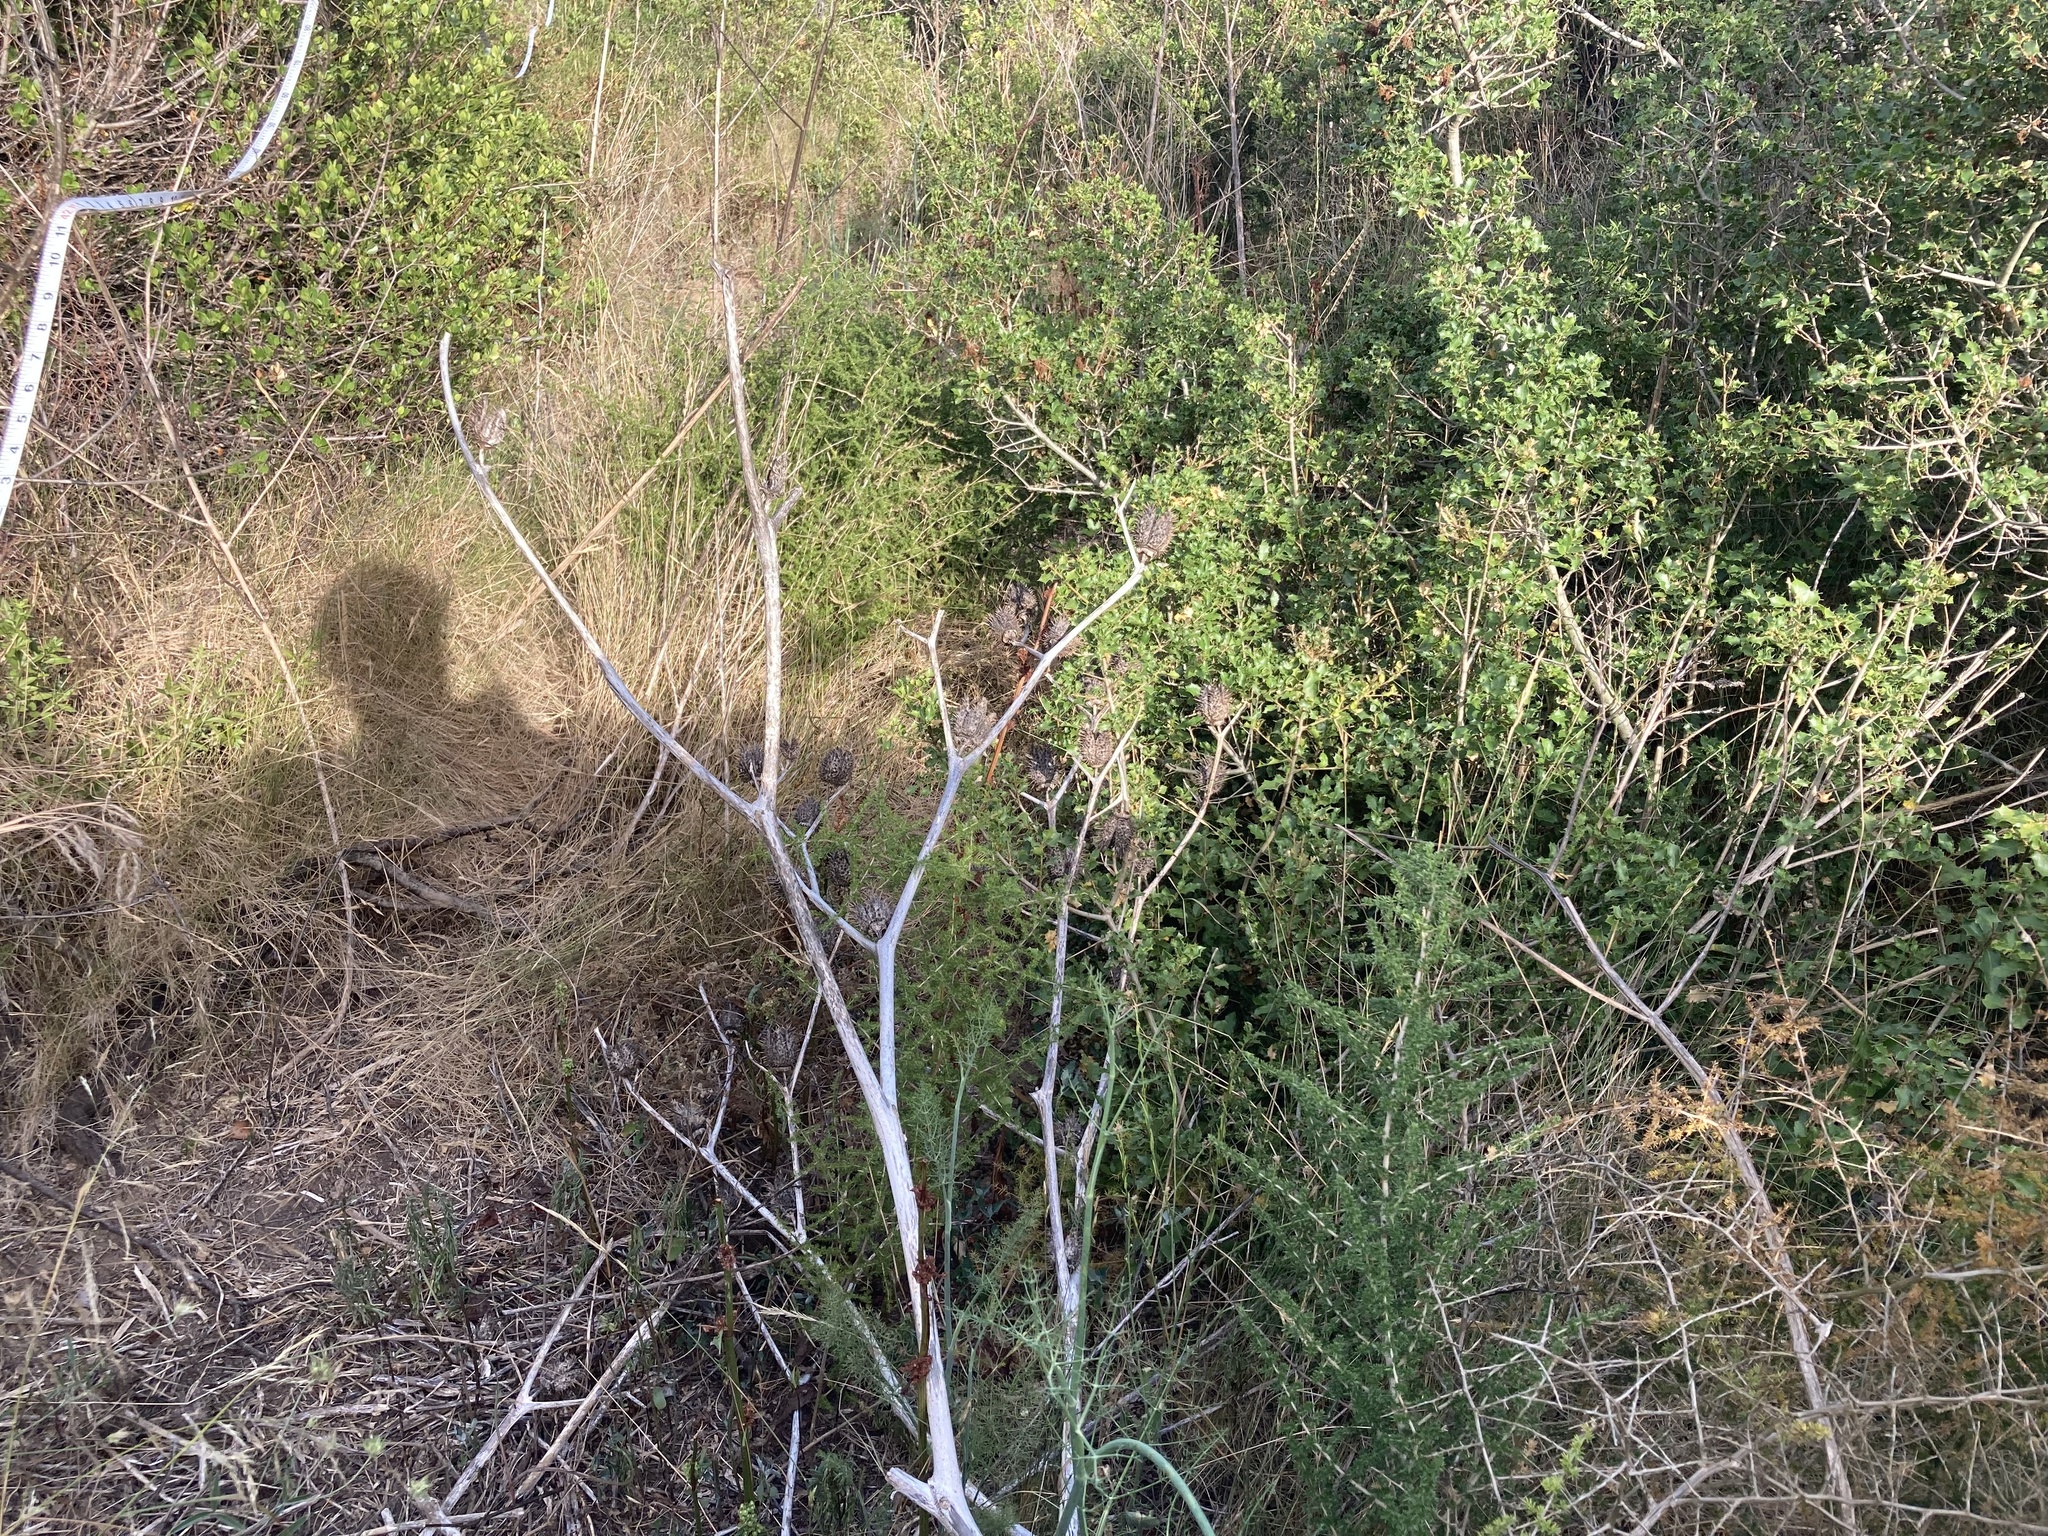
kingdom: Plantae
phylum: Tracheophyta
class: Magnoliopsida
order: Solanales
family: Solanaceae
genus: Datura
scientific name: Datura stramonium
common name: Thorn-apple
